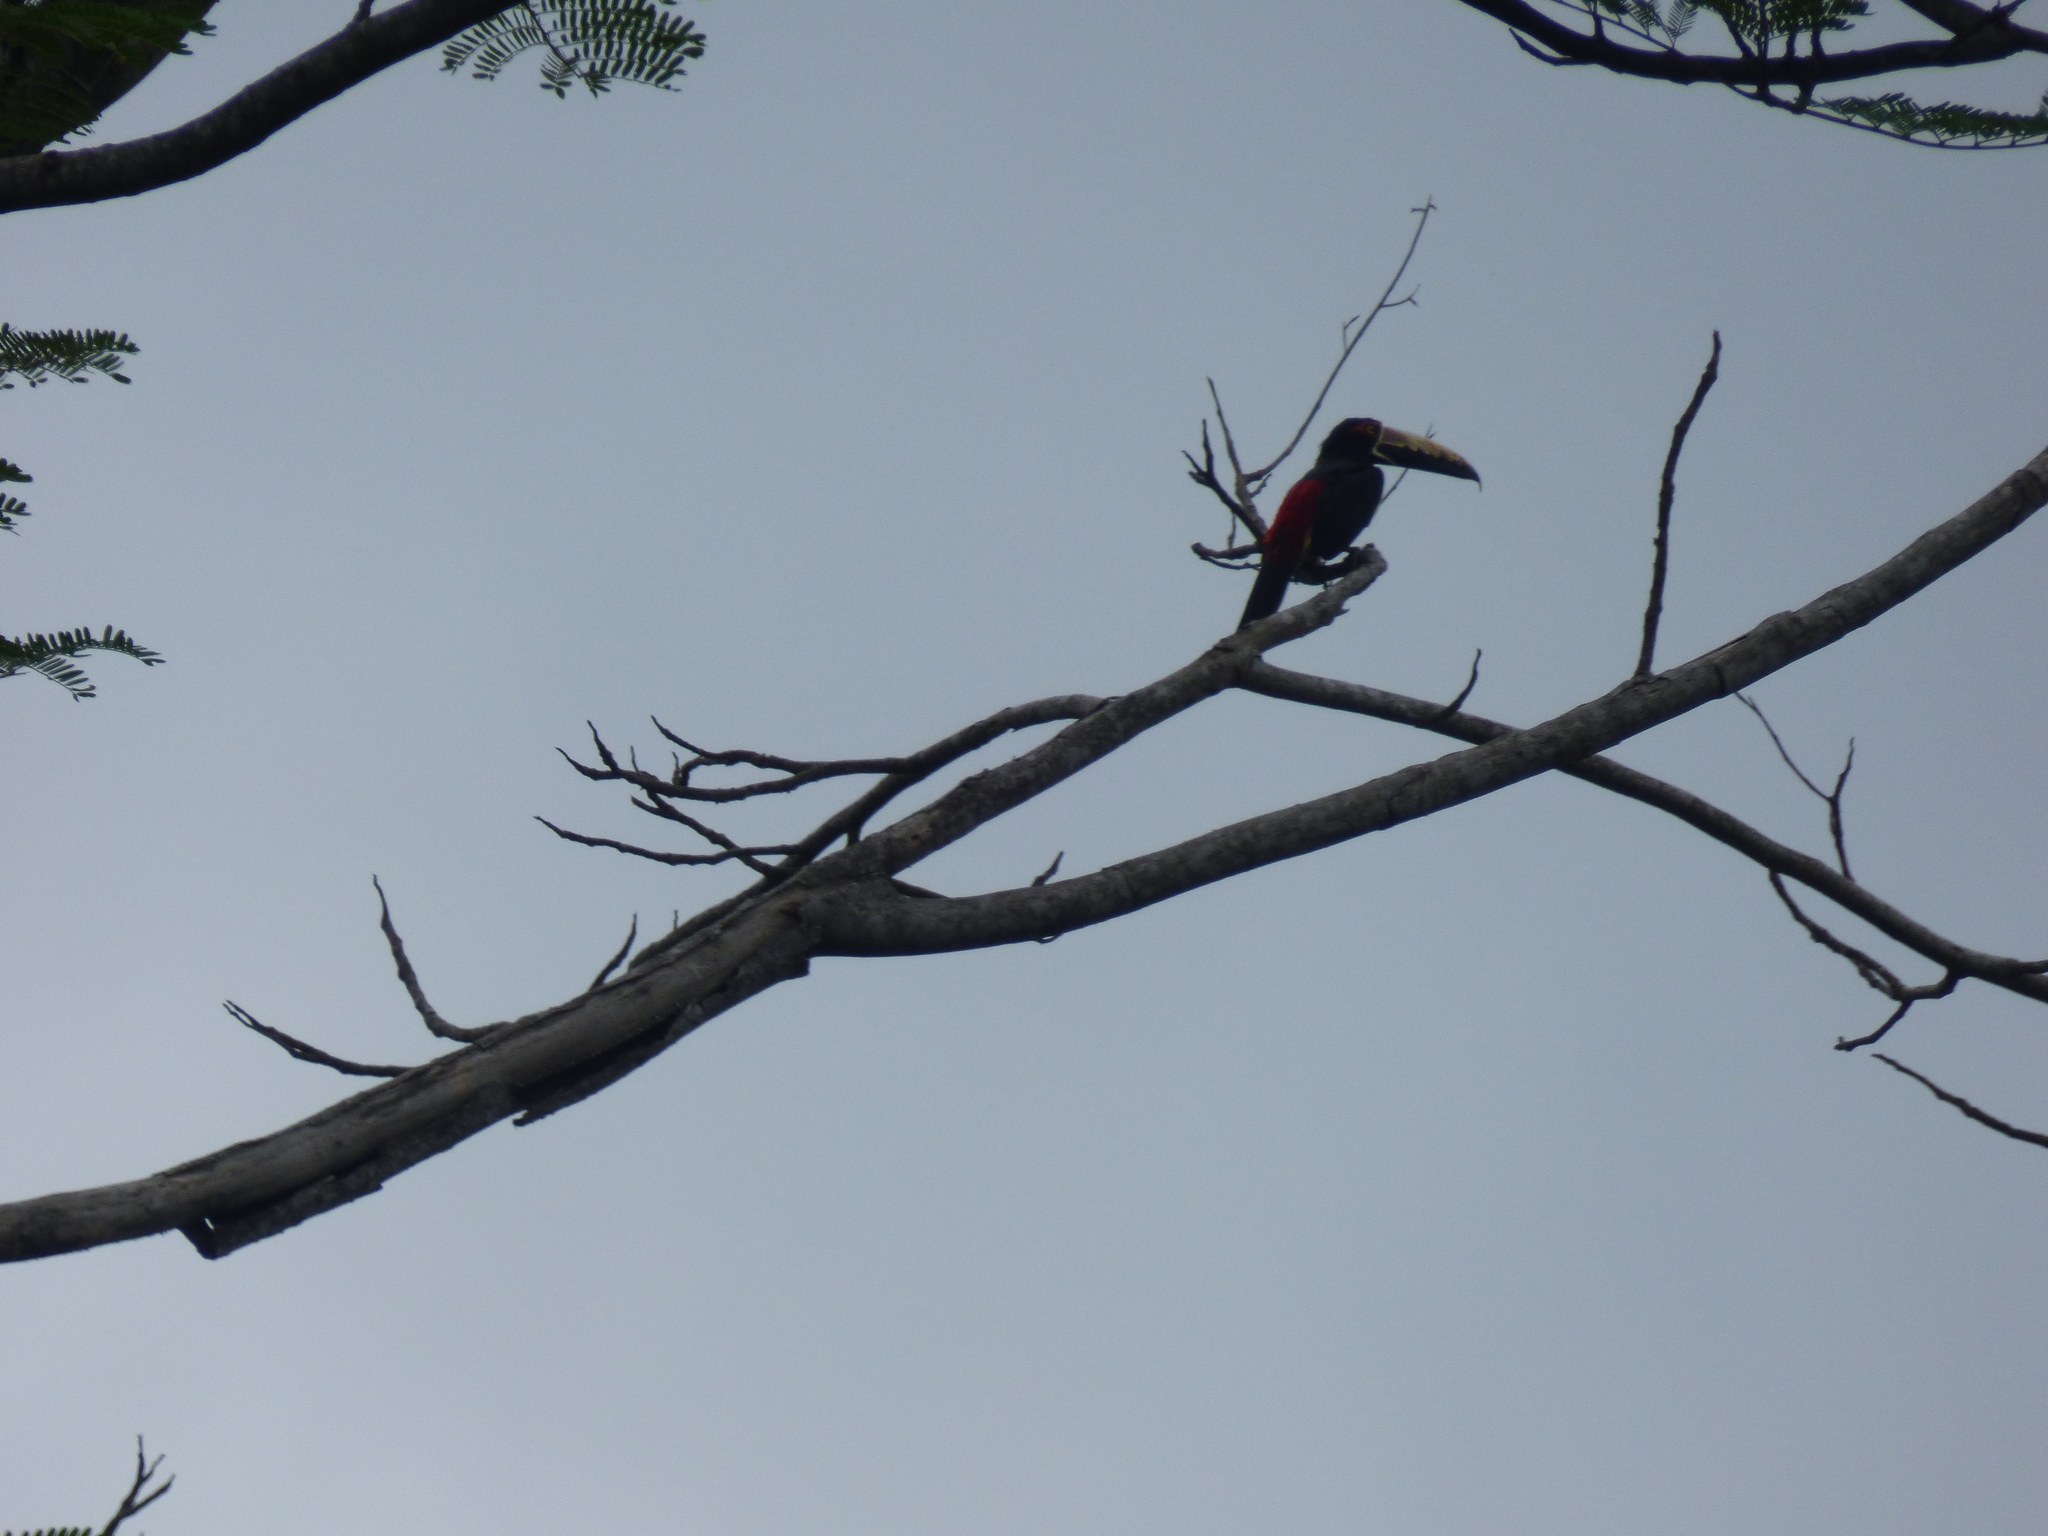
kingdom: Animalia
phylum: Chordata
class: Aves
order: Piciformes
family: Ramphastidae
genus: Pteroglossus
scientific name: Pteroglossus torquatus
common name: Collared aracari
